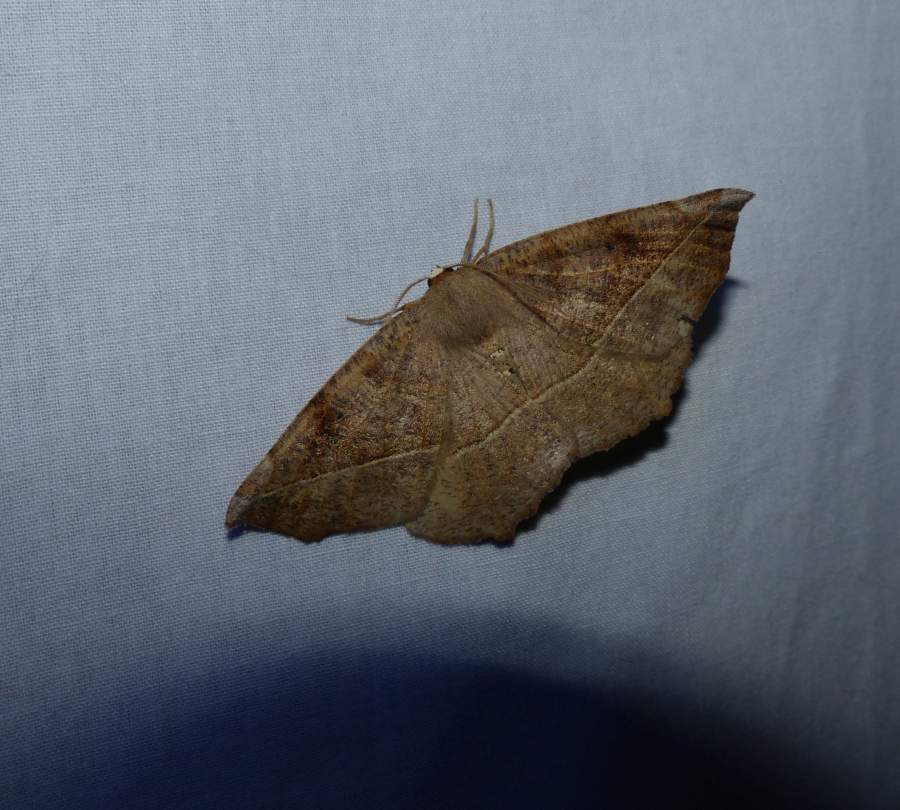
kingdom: Animalia
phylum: Arthropoda
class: Insecta
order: Lepidoptera
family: Geometridae
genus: Eutrapela
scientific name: Eutrapela clemataria
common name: Curved-toothed geometer
